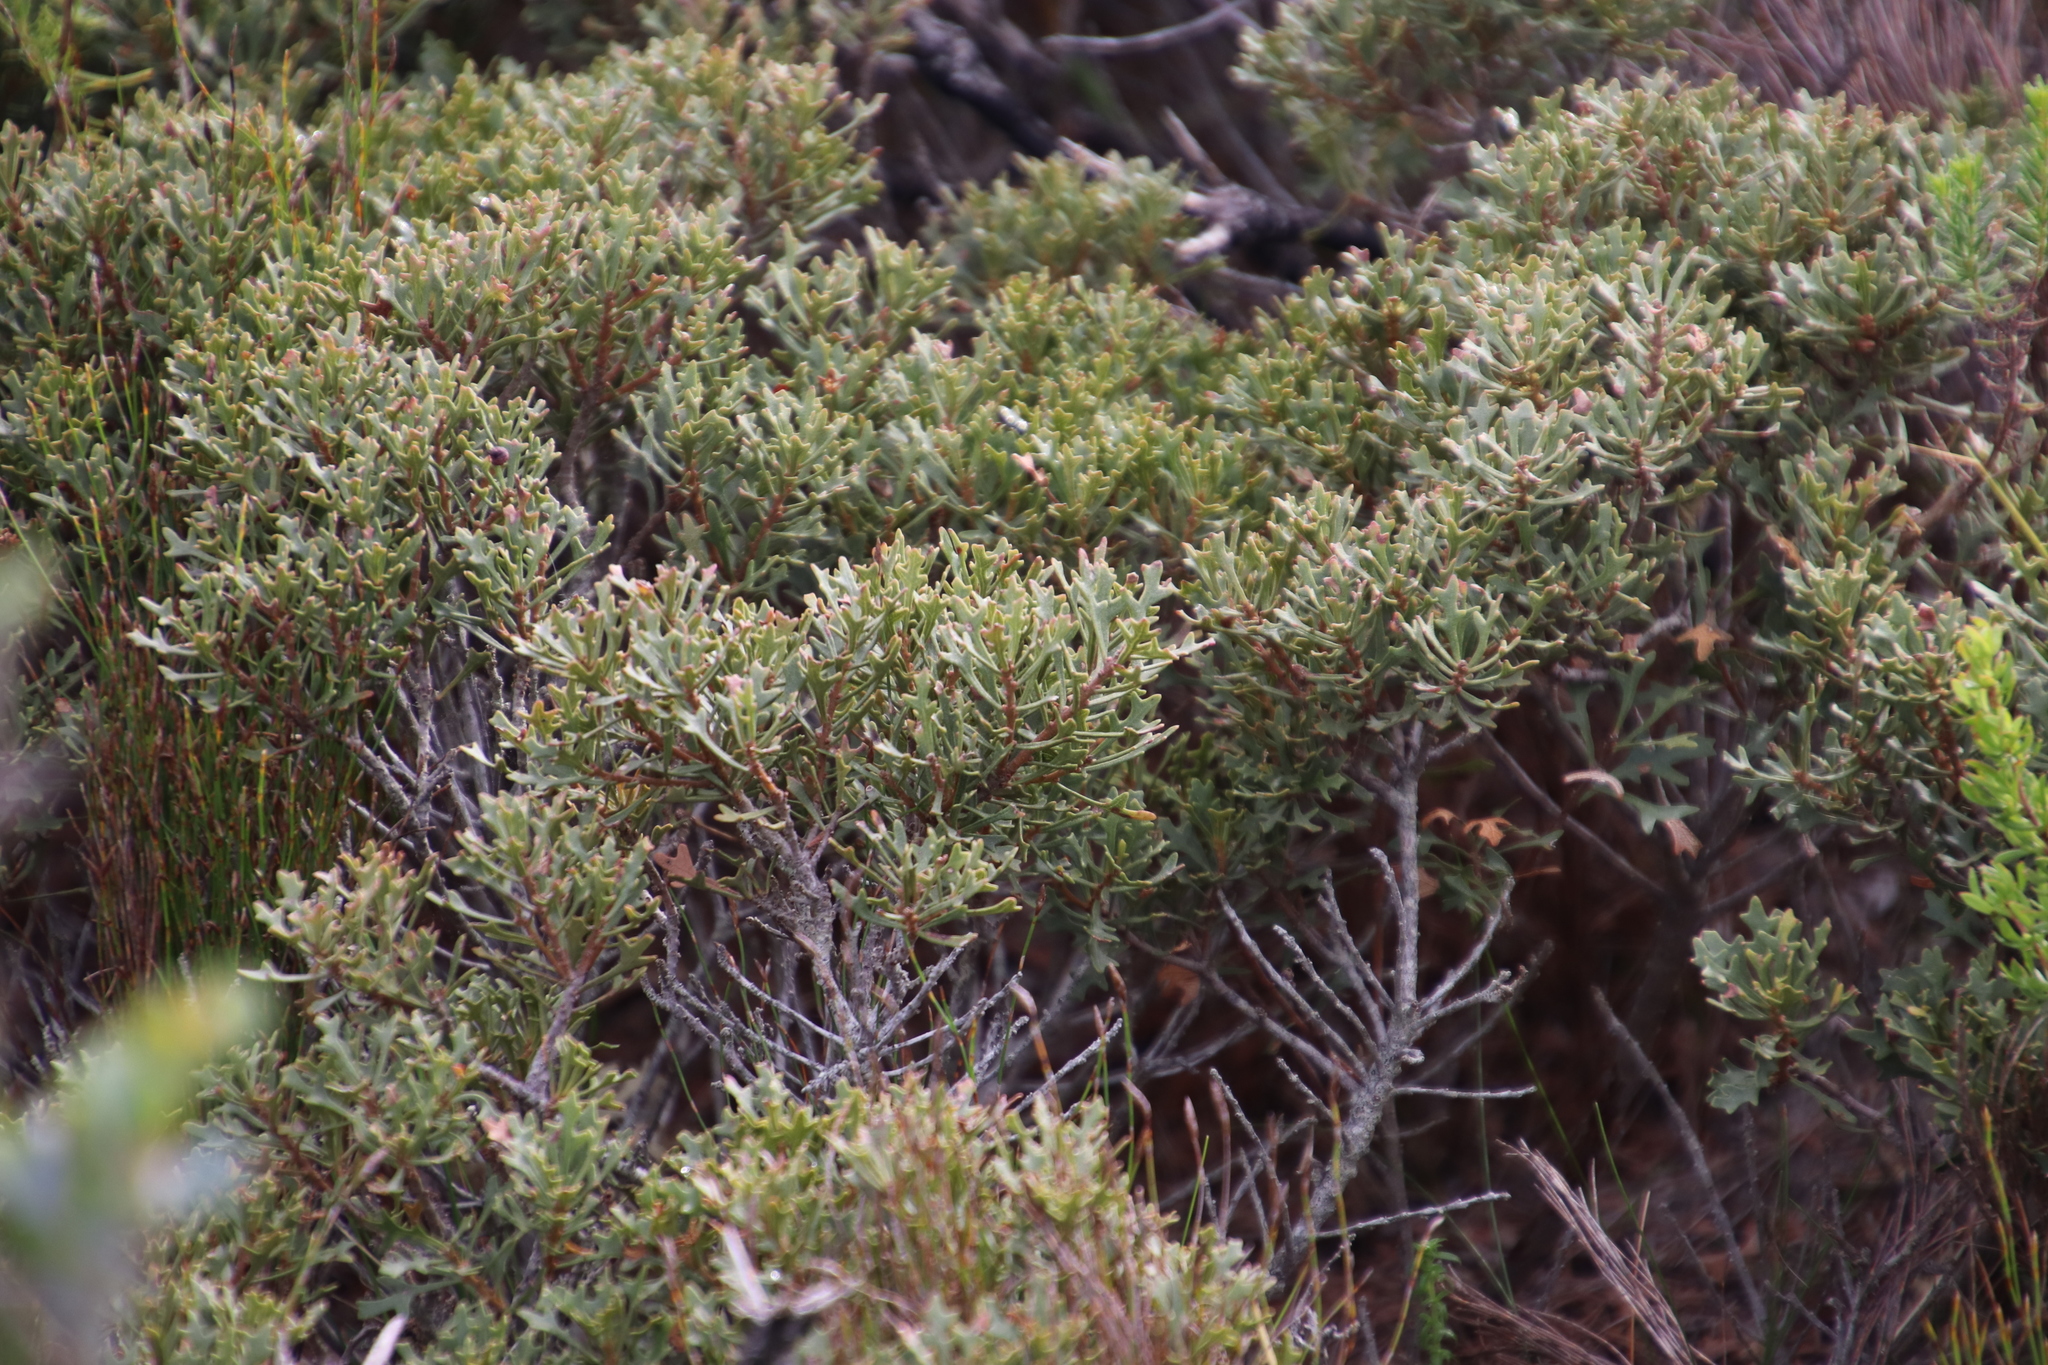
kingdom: Plantae
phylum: Tracheophyta
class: Magnoliopsida
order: Fagales
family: Myricaceae
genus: Morella
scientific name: Morella quercifolia
